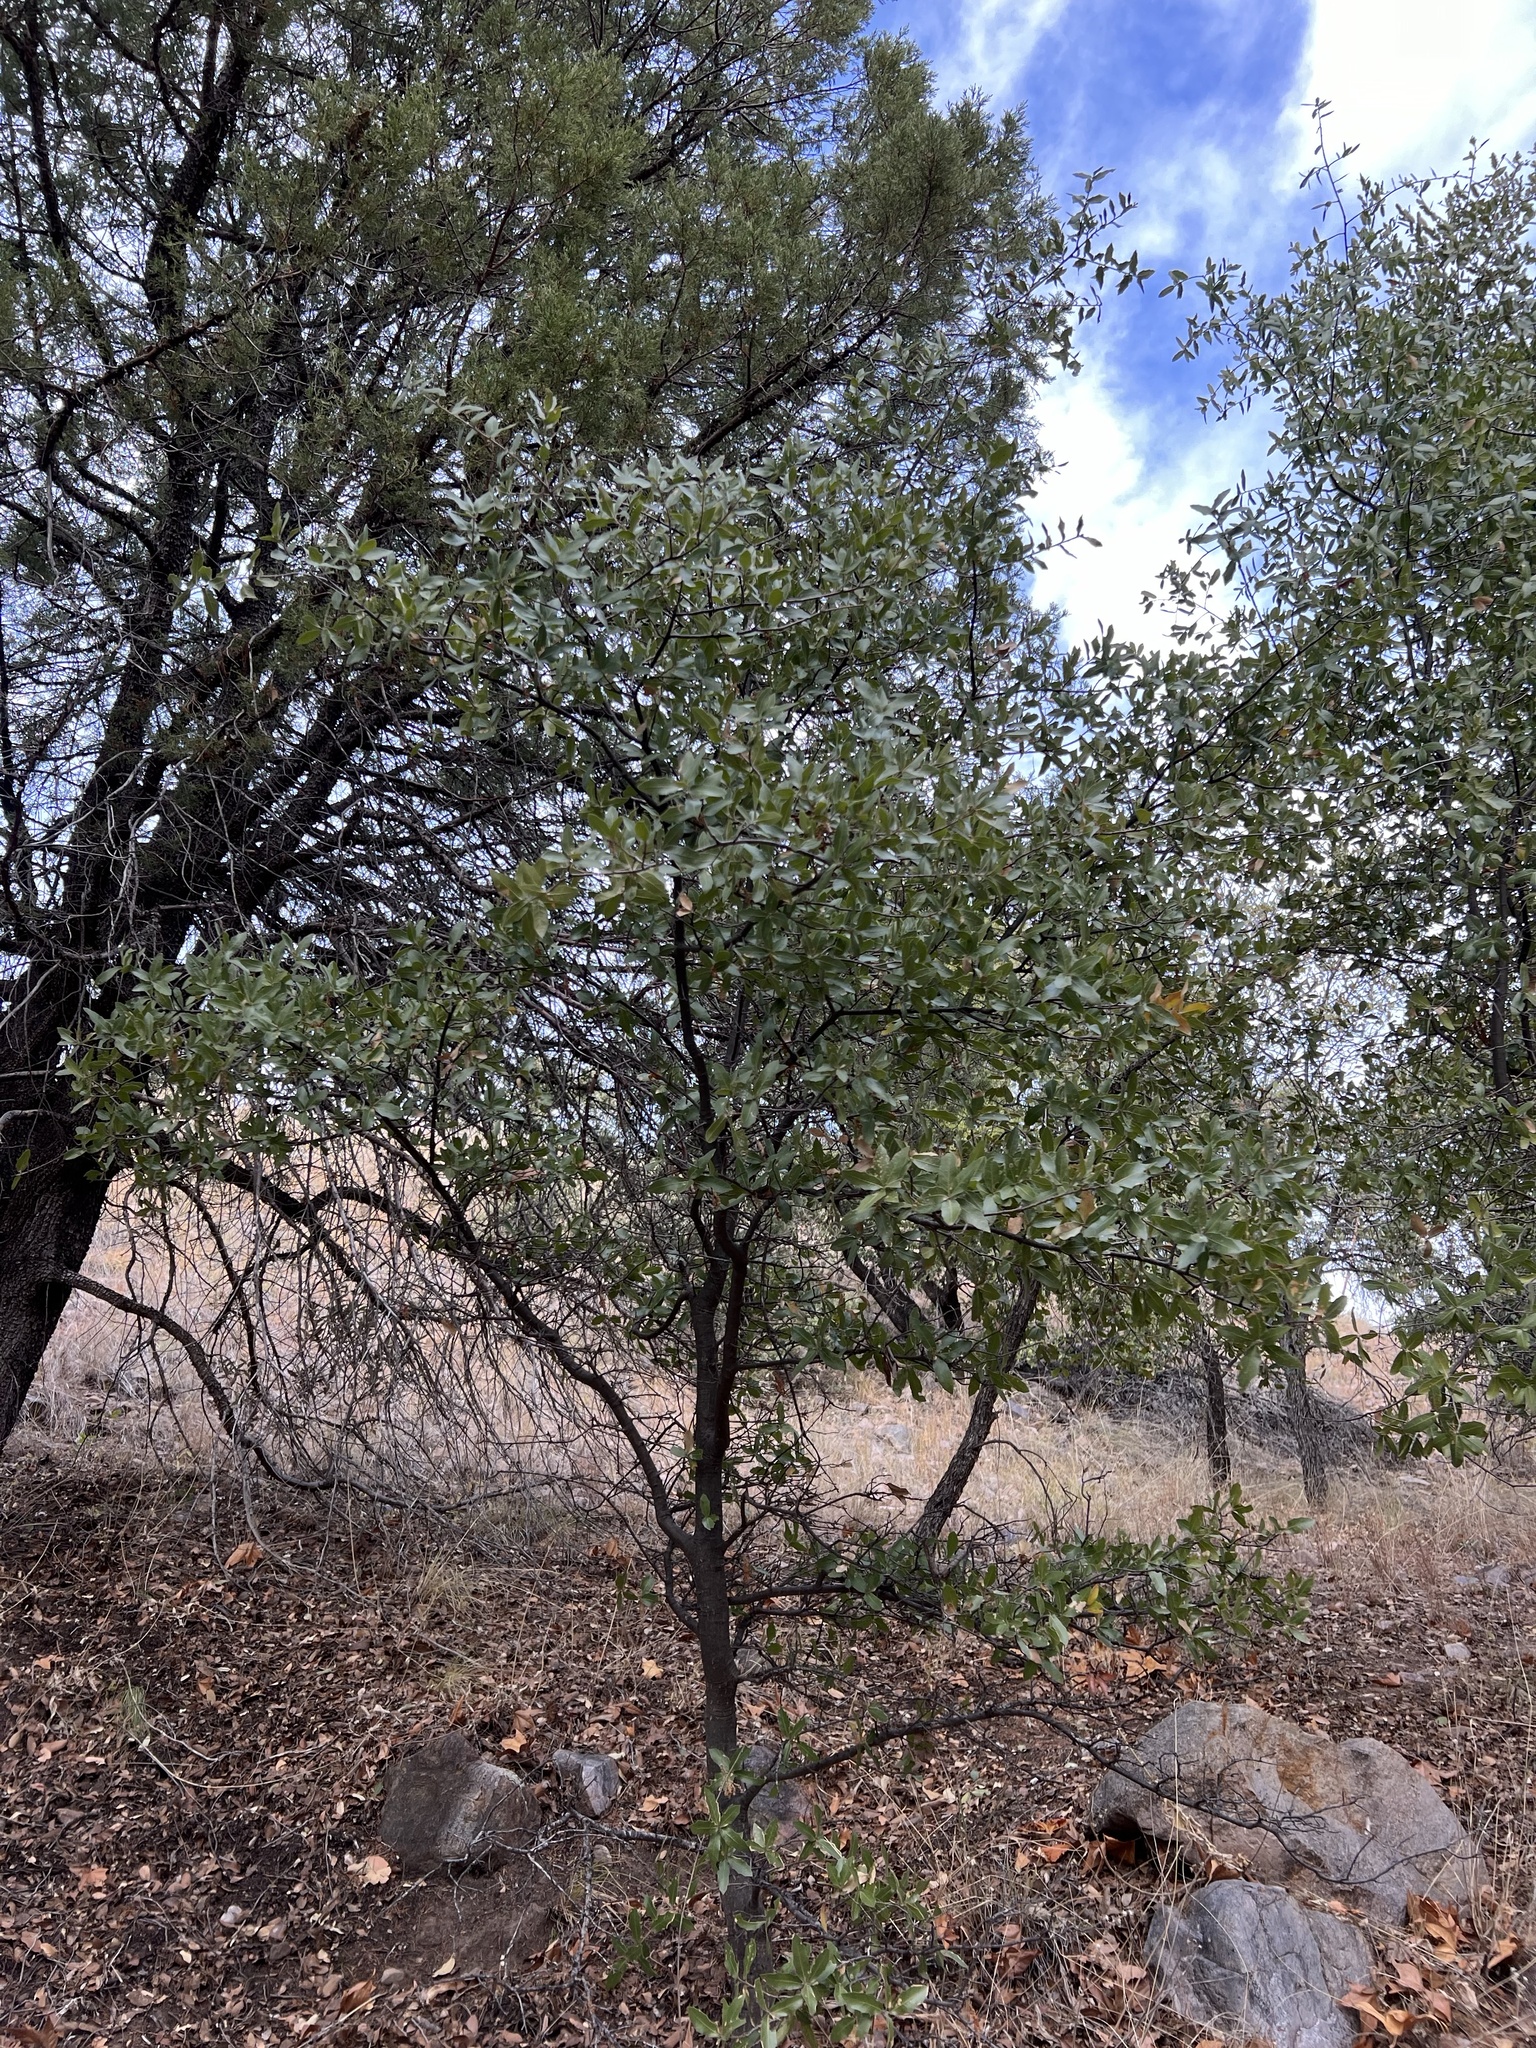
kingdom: Plantae
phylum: Tracheophyta
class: Magnoliopsida
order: Fagales
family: Fagaceae
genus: Quercus
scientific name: Quercus arizonica
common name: Arizona white oak
